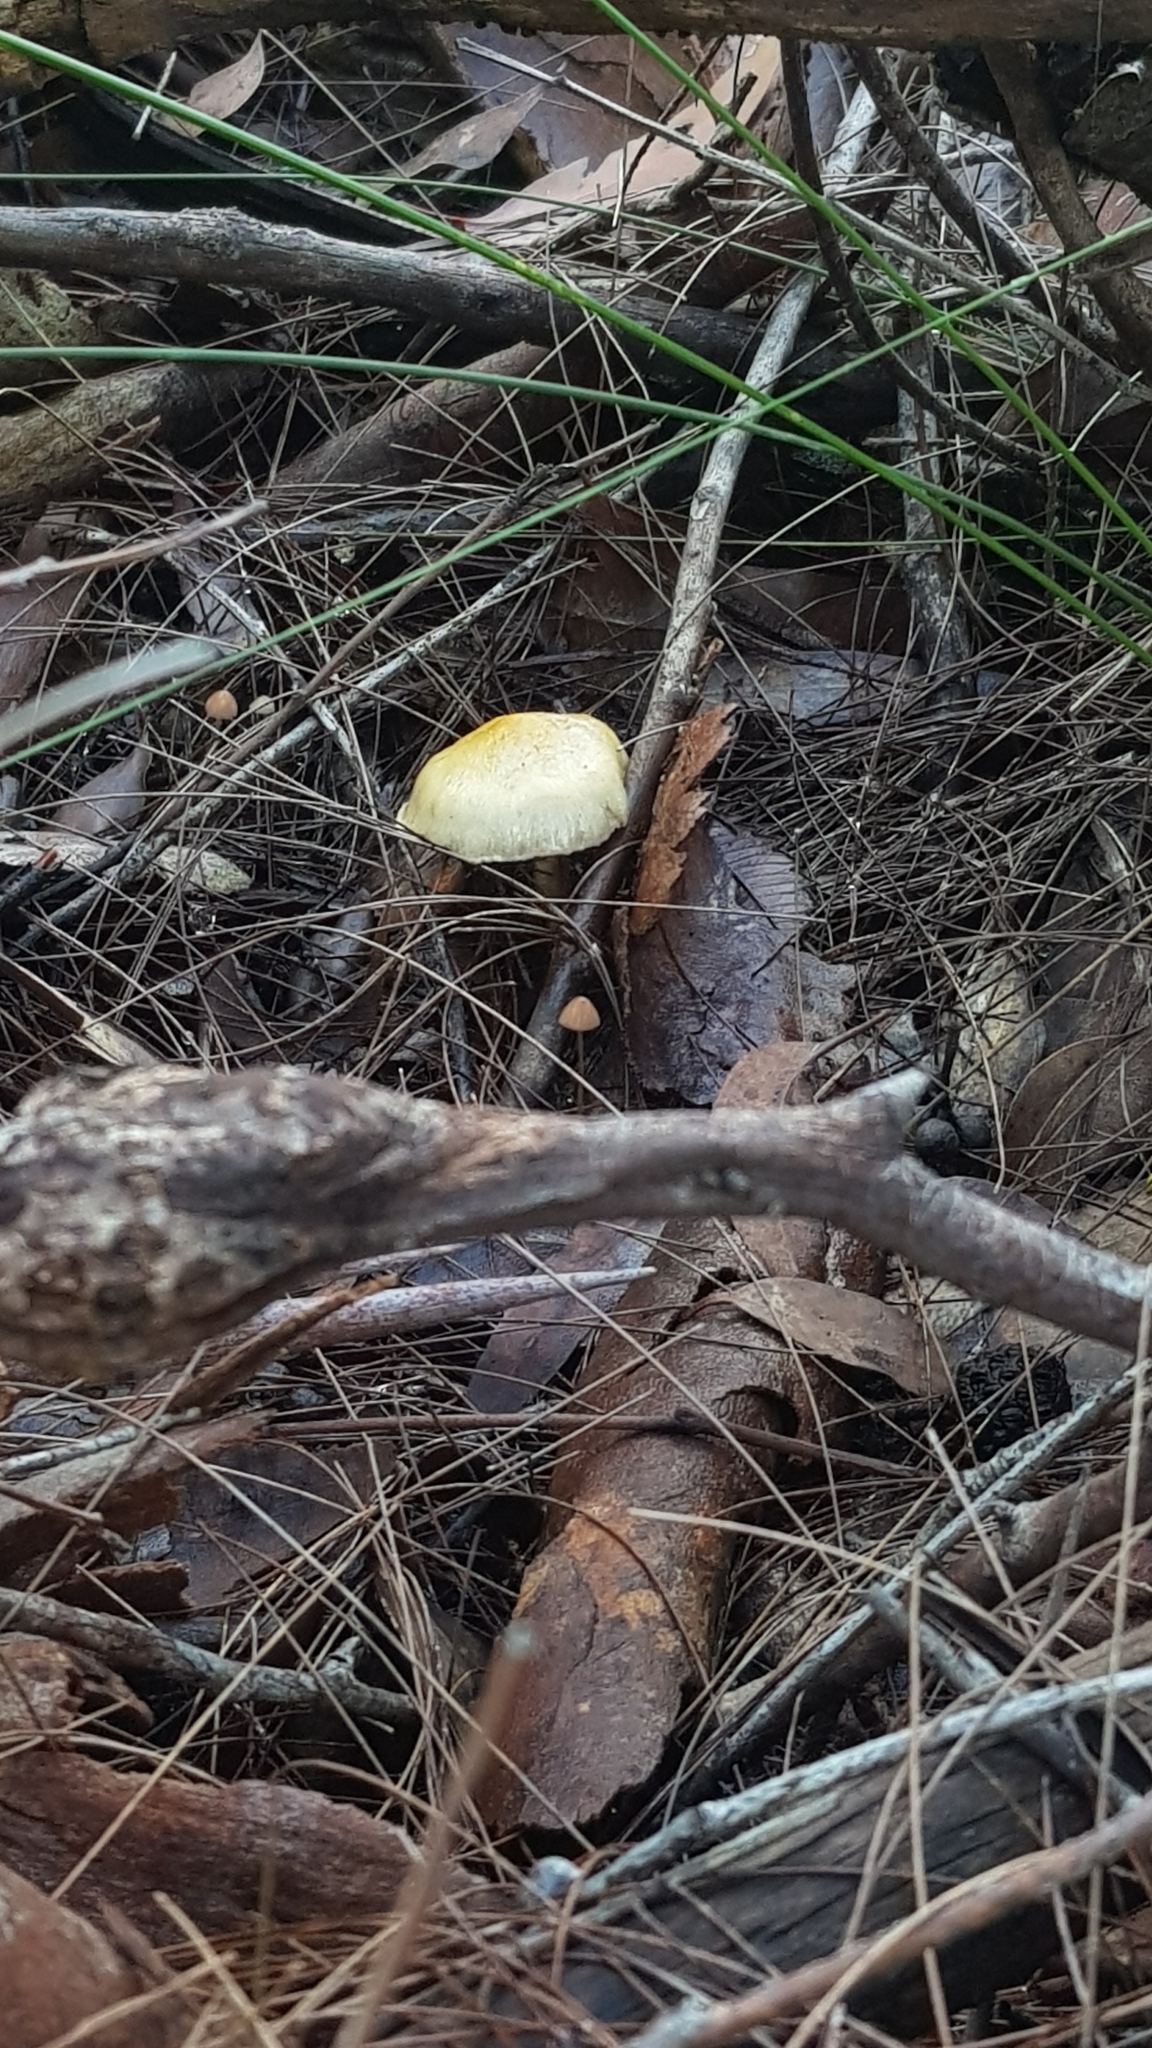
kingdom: Fungi
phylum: Basidiomycota
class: Agaricomycetes
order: Agaricales
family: Cortinariaceae
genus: Cortinarius
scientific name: Cortinarius rotundisporus
